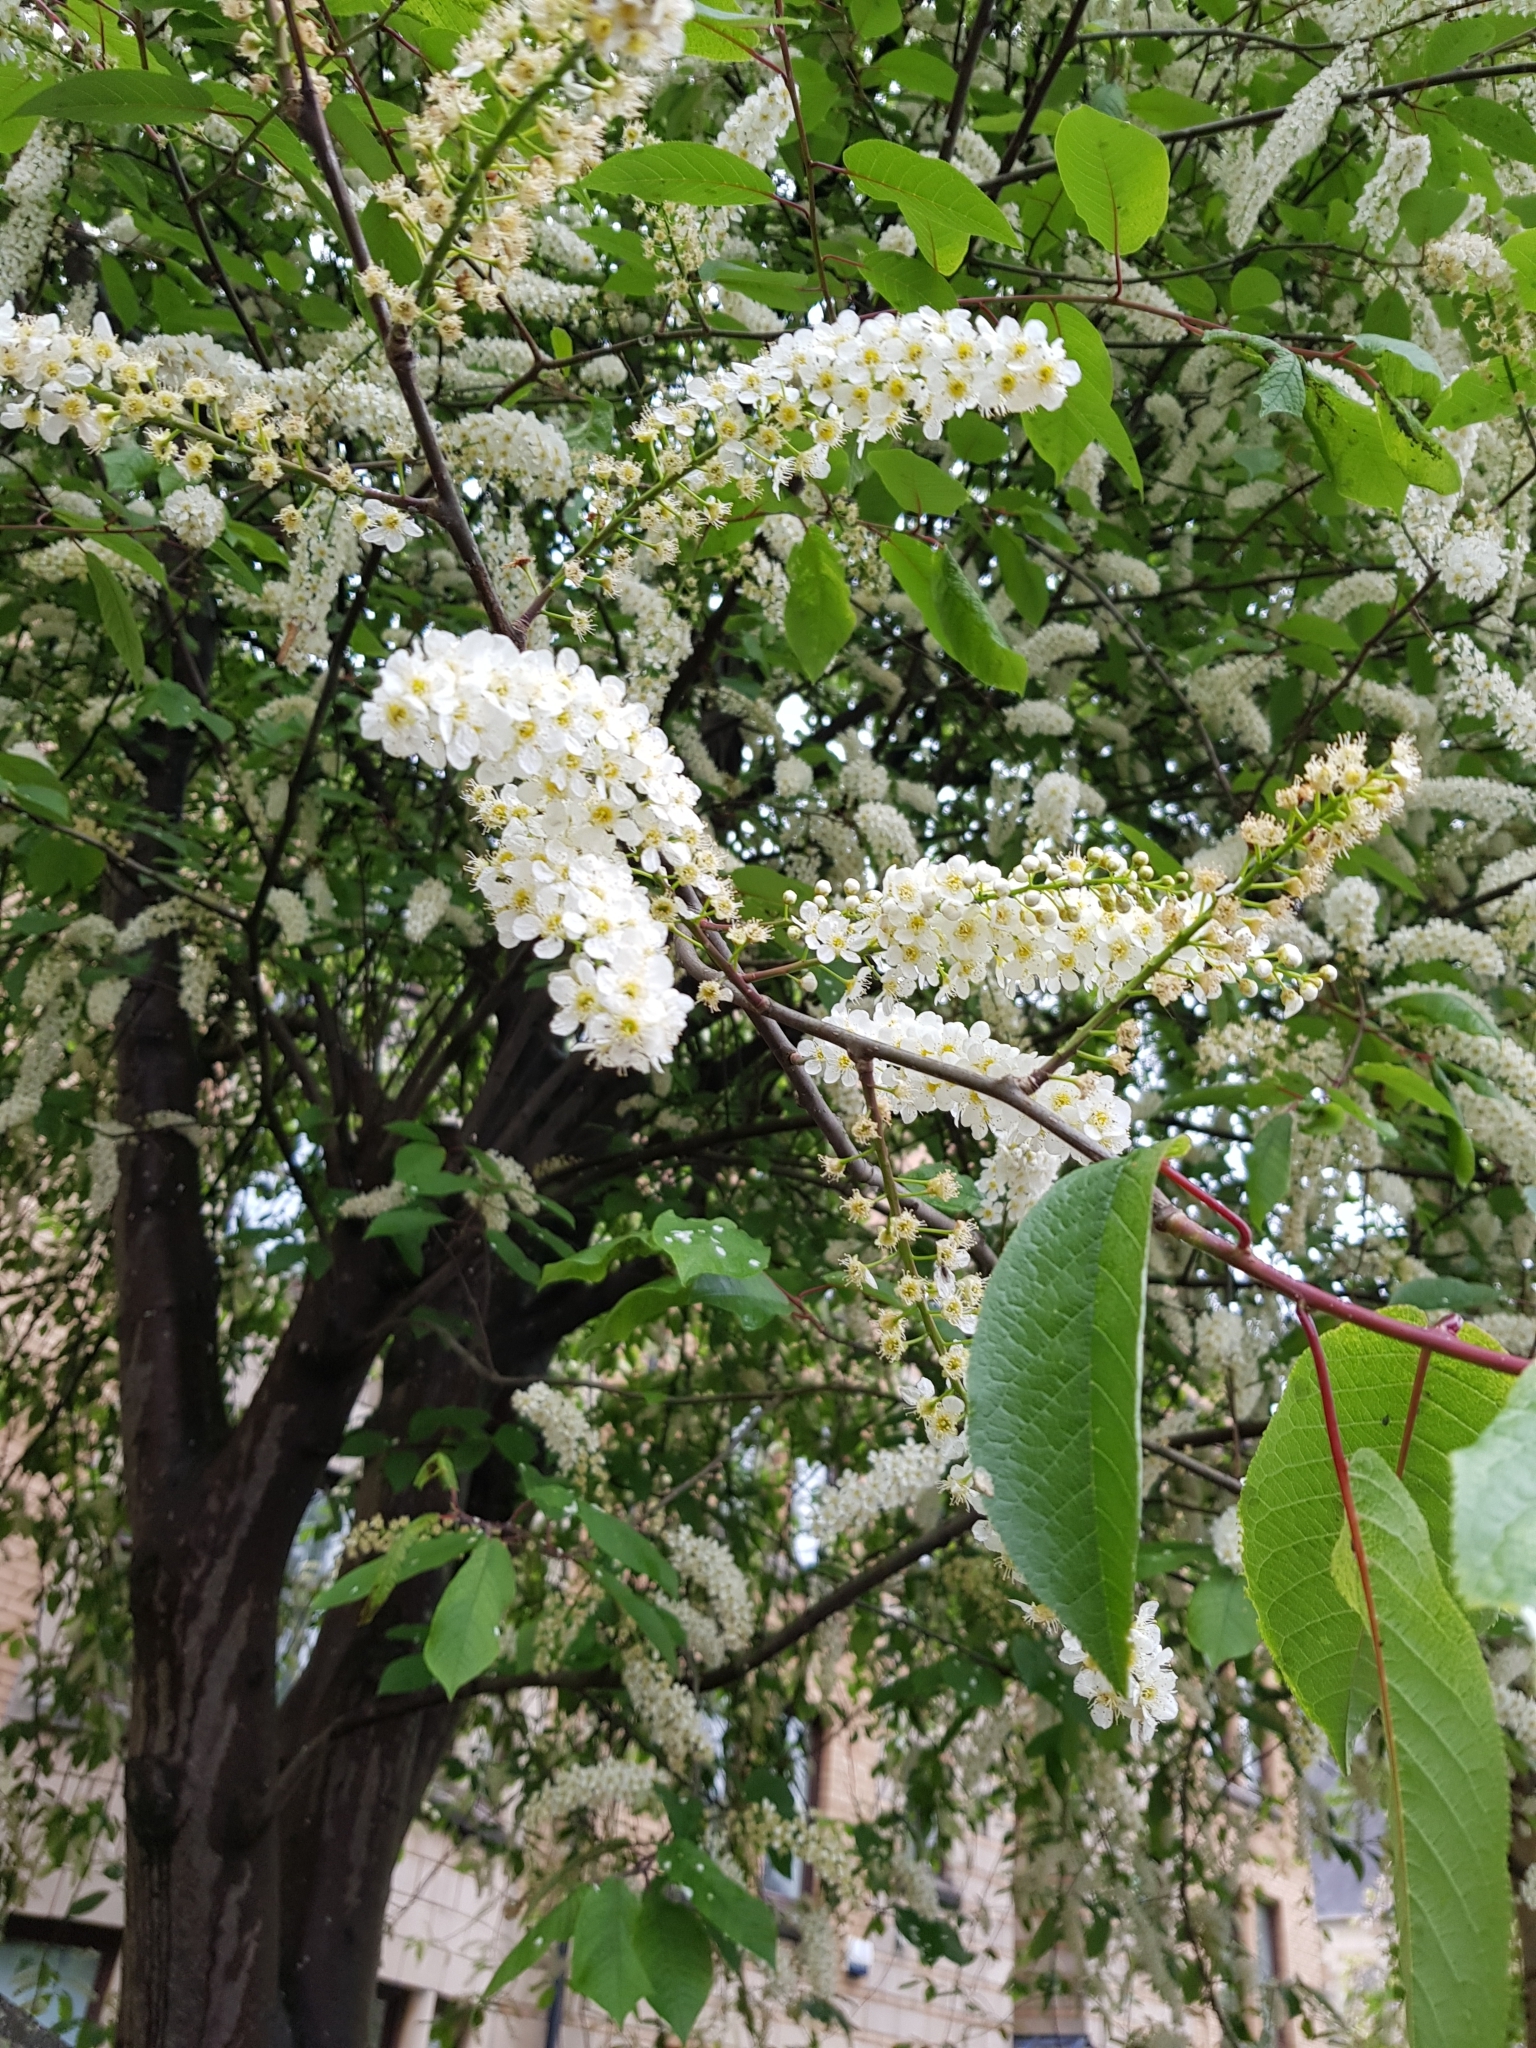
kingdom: Plantae
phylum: Tracheophyta
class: Magnoliopsida
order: Rosales
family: Rosaceae
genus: Prunus
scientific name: Prunus padus
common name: Bird cherry
